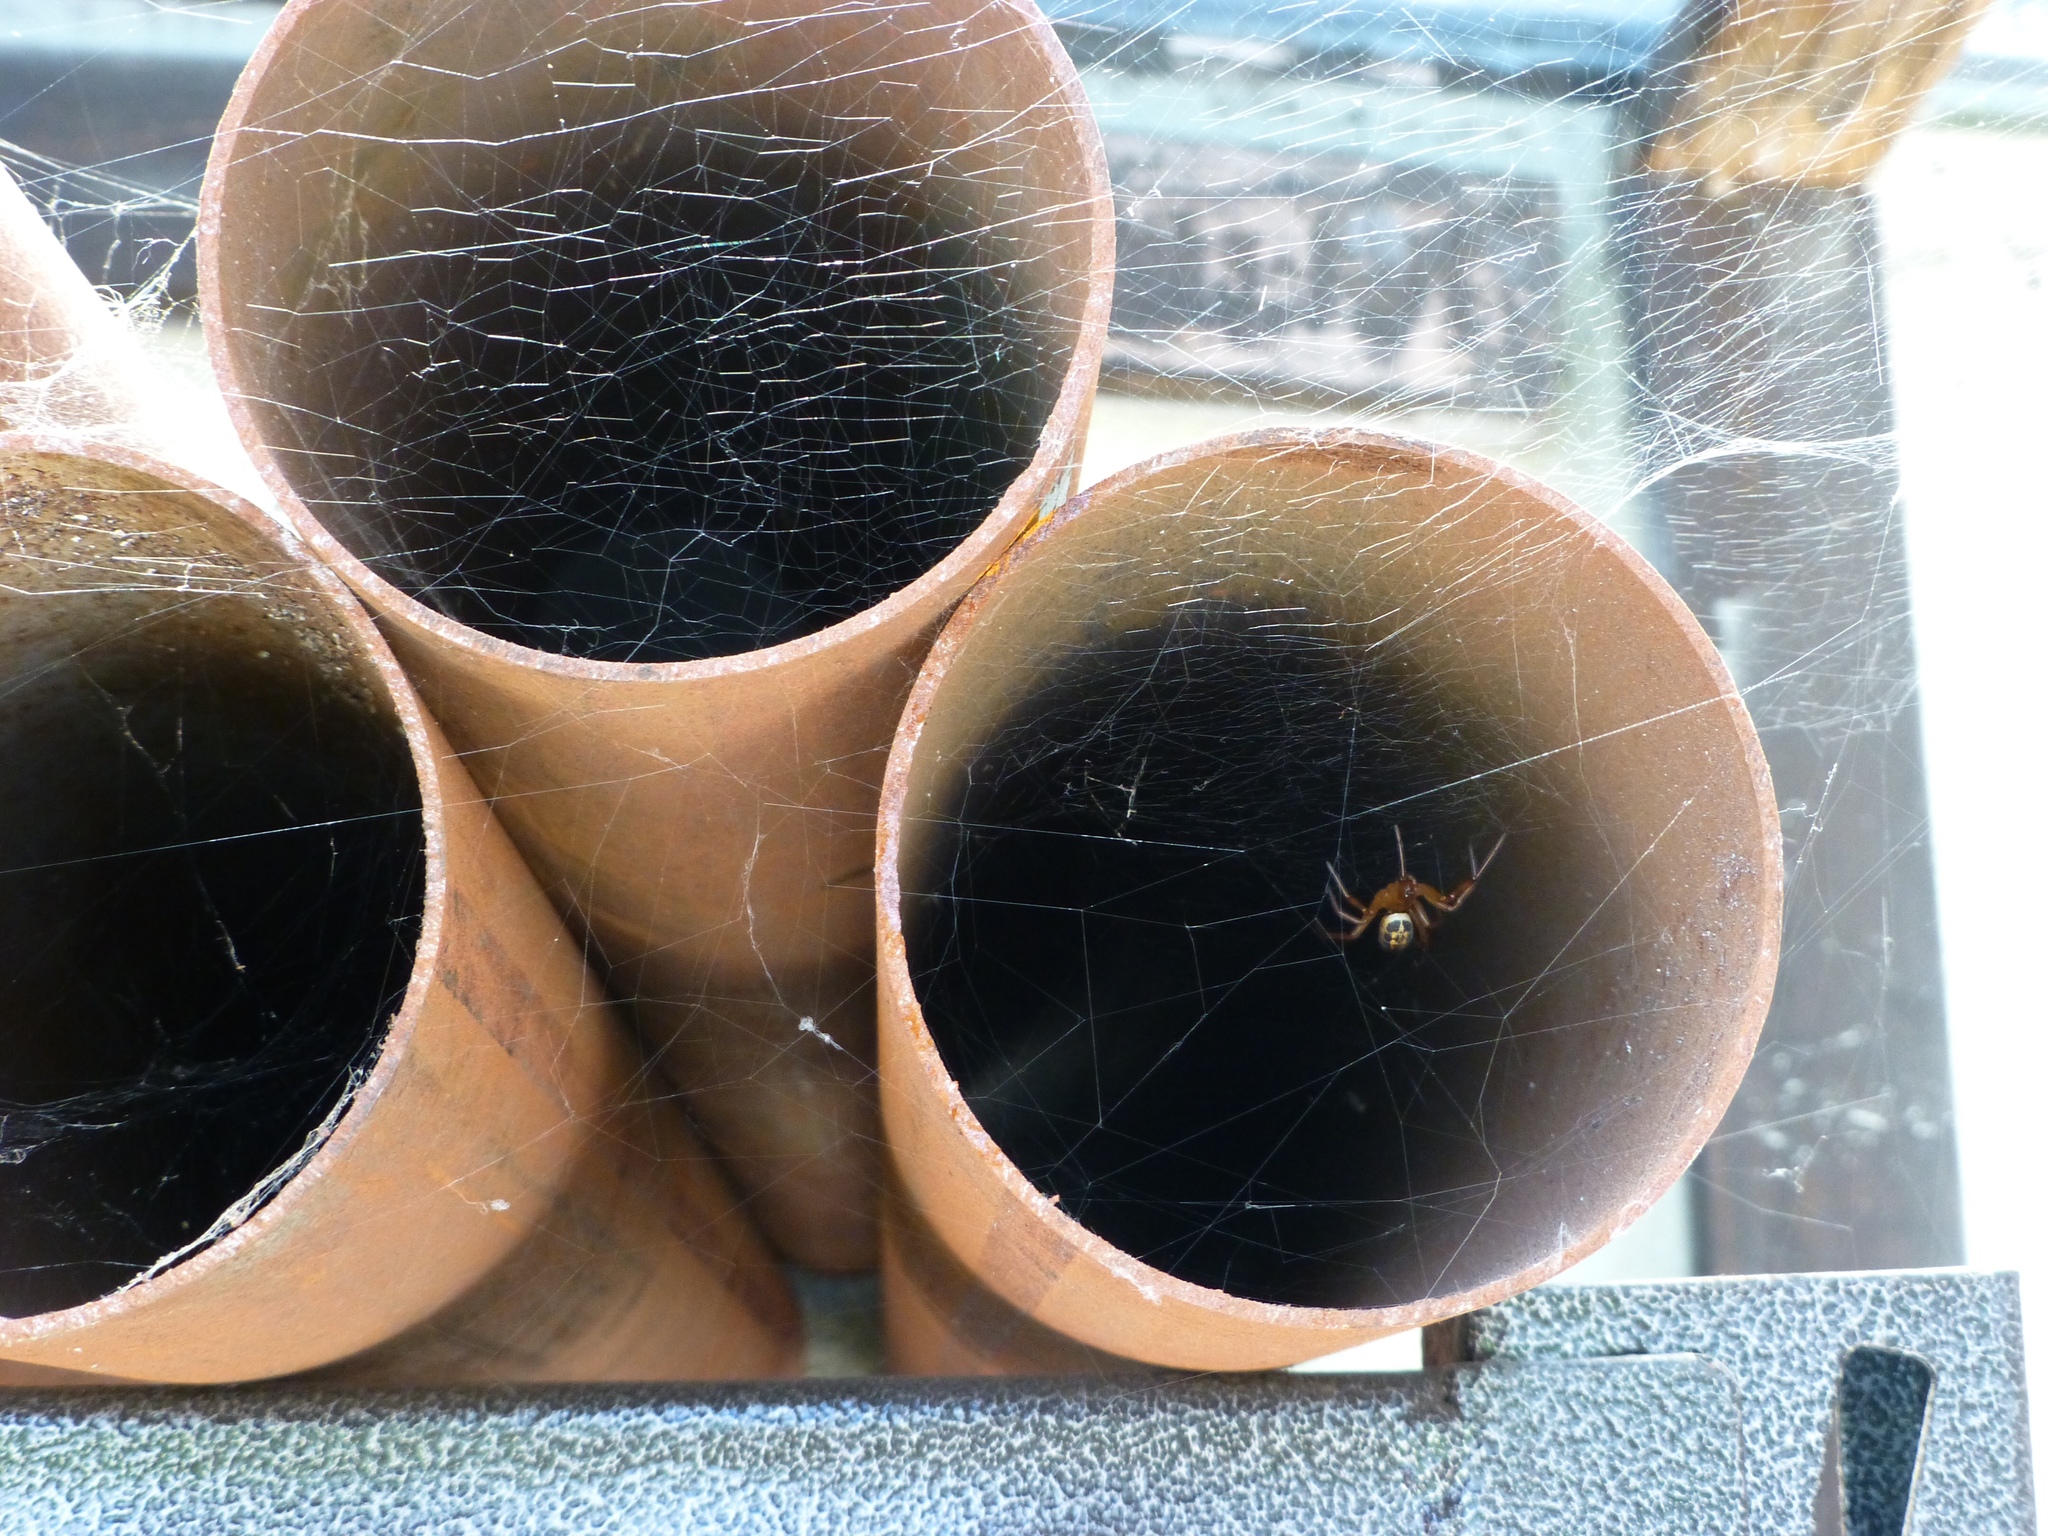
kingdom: Animalia
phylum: Arthropoda
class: Arachnida
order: Araneae
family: Theridiidae
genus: Steatoda
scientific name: Steatoda nobilis
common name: Cobweb weaver
